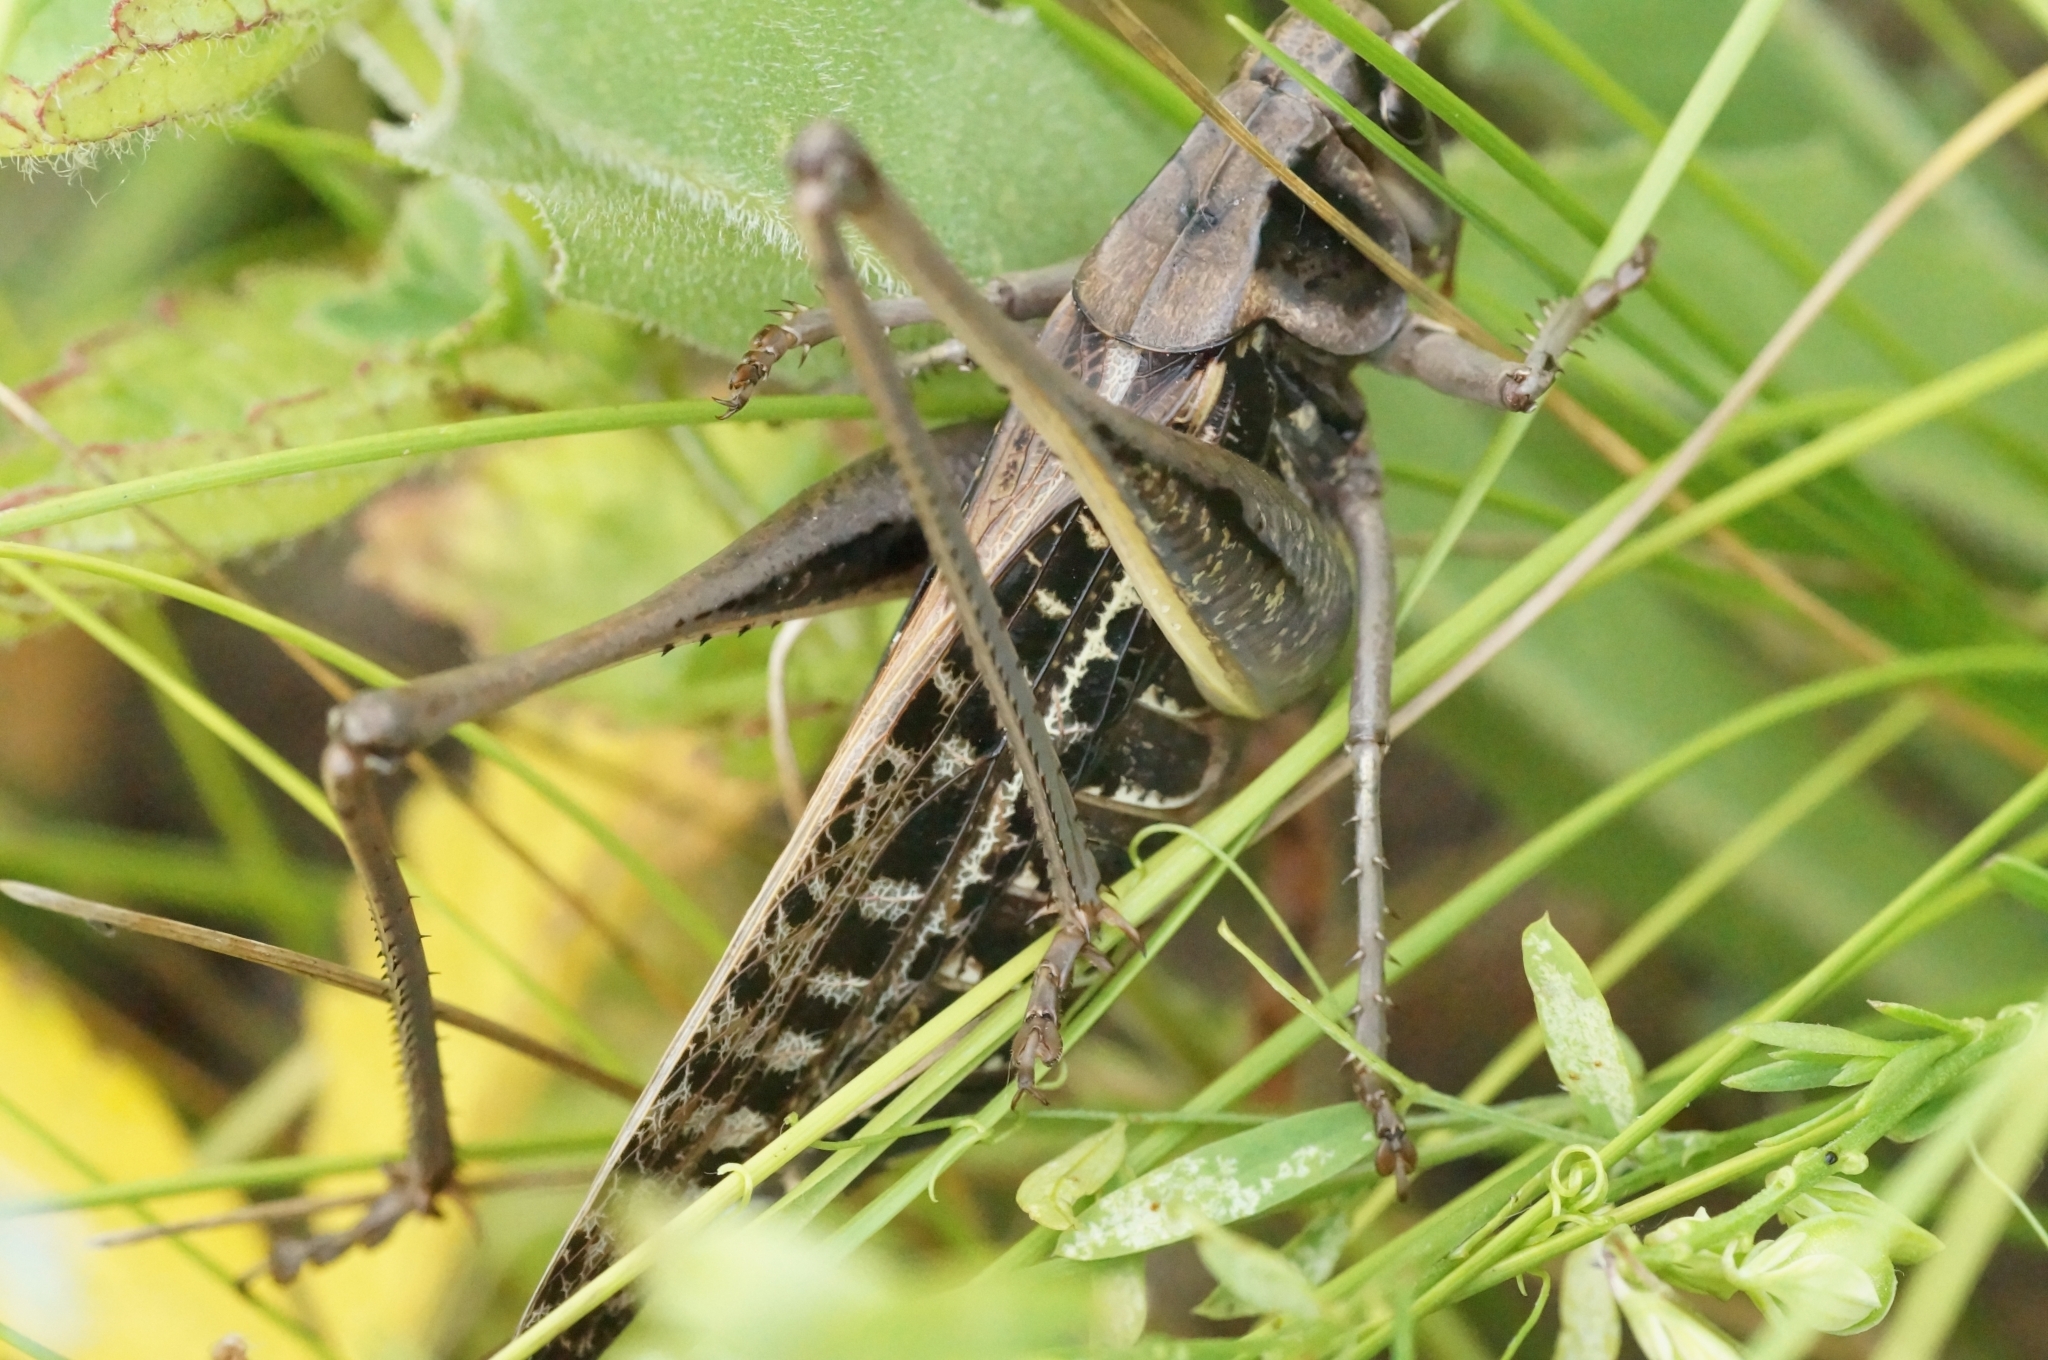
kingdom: Animalia
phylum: Arthropoda
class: Insecta
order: Orthoptera
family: Tettigoniidae
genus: Decticus
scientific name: Decticus verrucivorus
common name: Wart-biter
